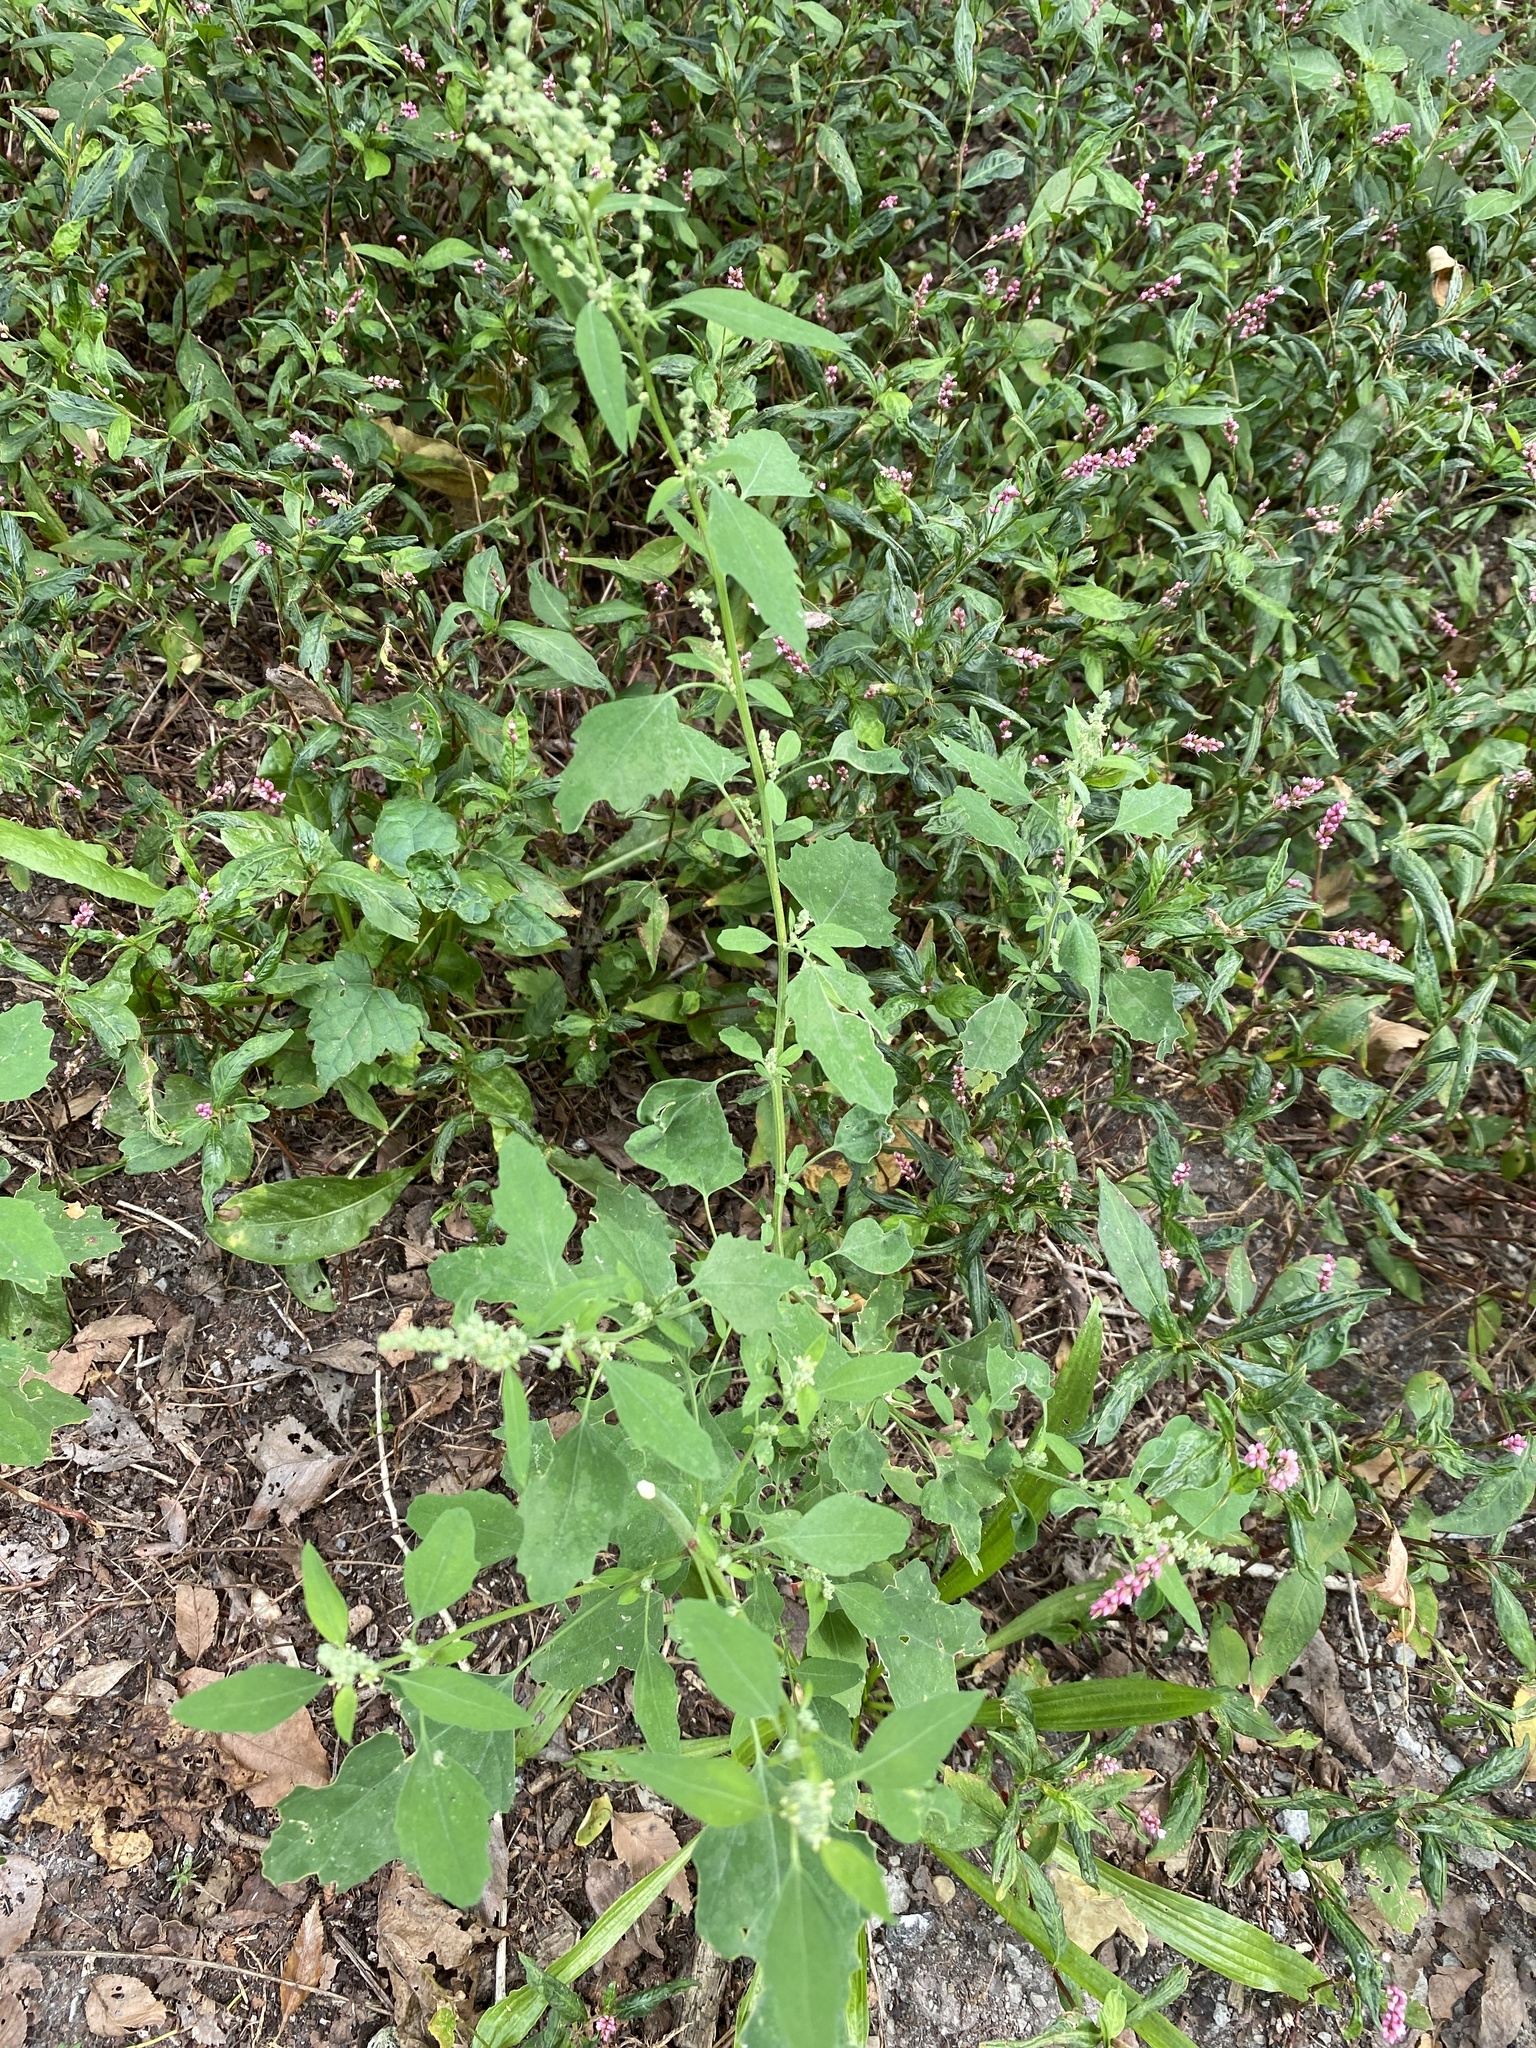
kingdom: Plantae
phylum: Tracheophyta
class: Magnoliopsida
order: Caryophyllales
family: Amaranthaceae
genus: Chenopodium
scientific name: Chenopodium album
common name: Fat-hen
